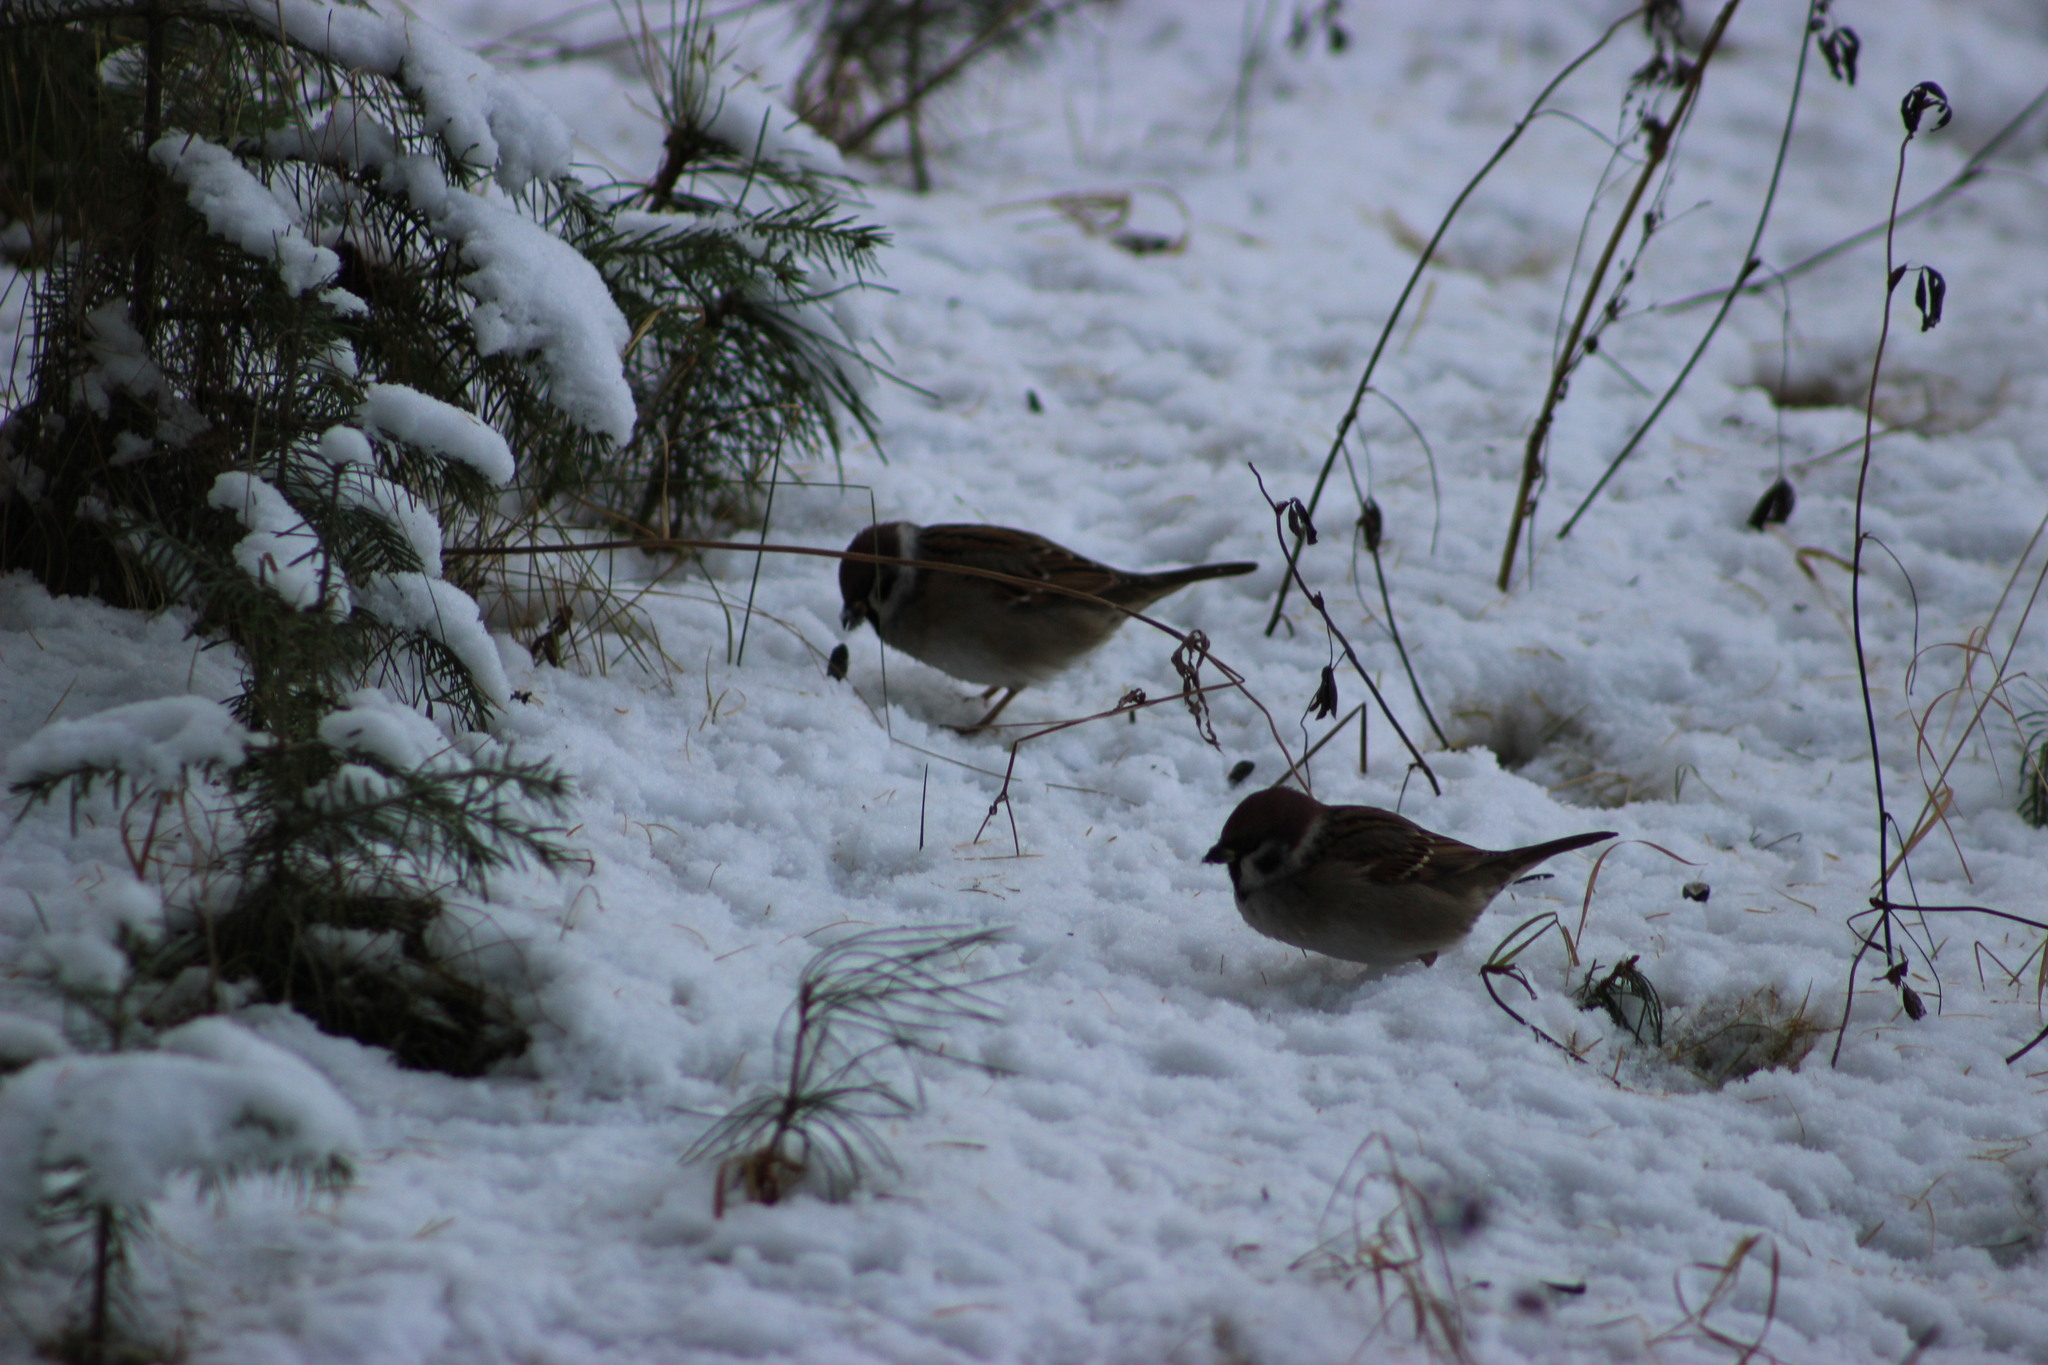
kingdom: Animalia
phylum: Chordata
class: Aves
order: Passeriformes
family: Passeridae
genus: Passer
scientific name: Passer montanus
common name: Eurasian tree sparrow
